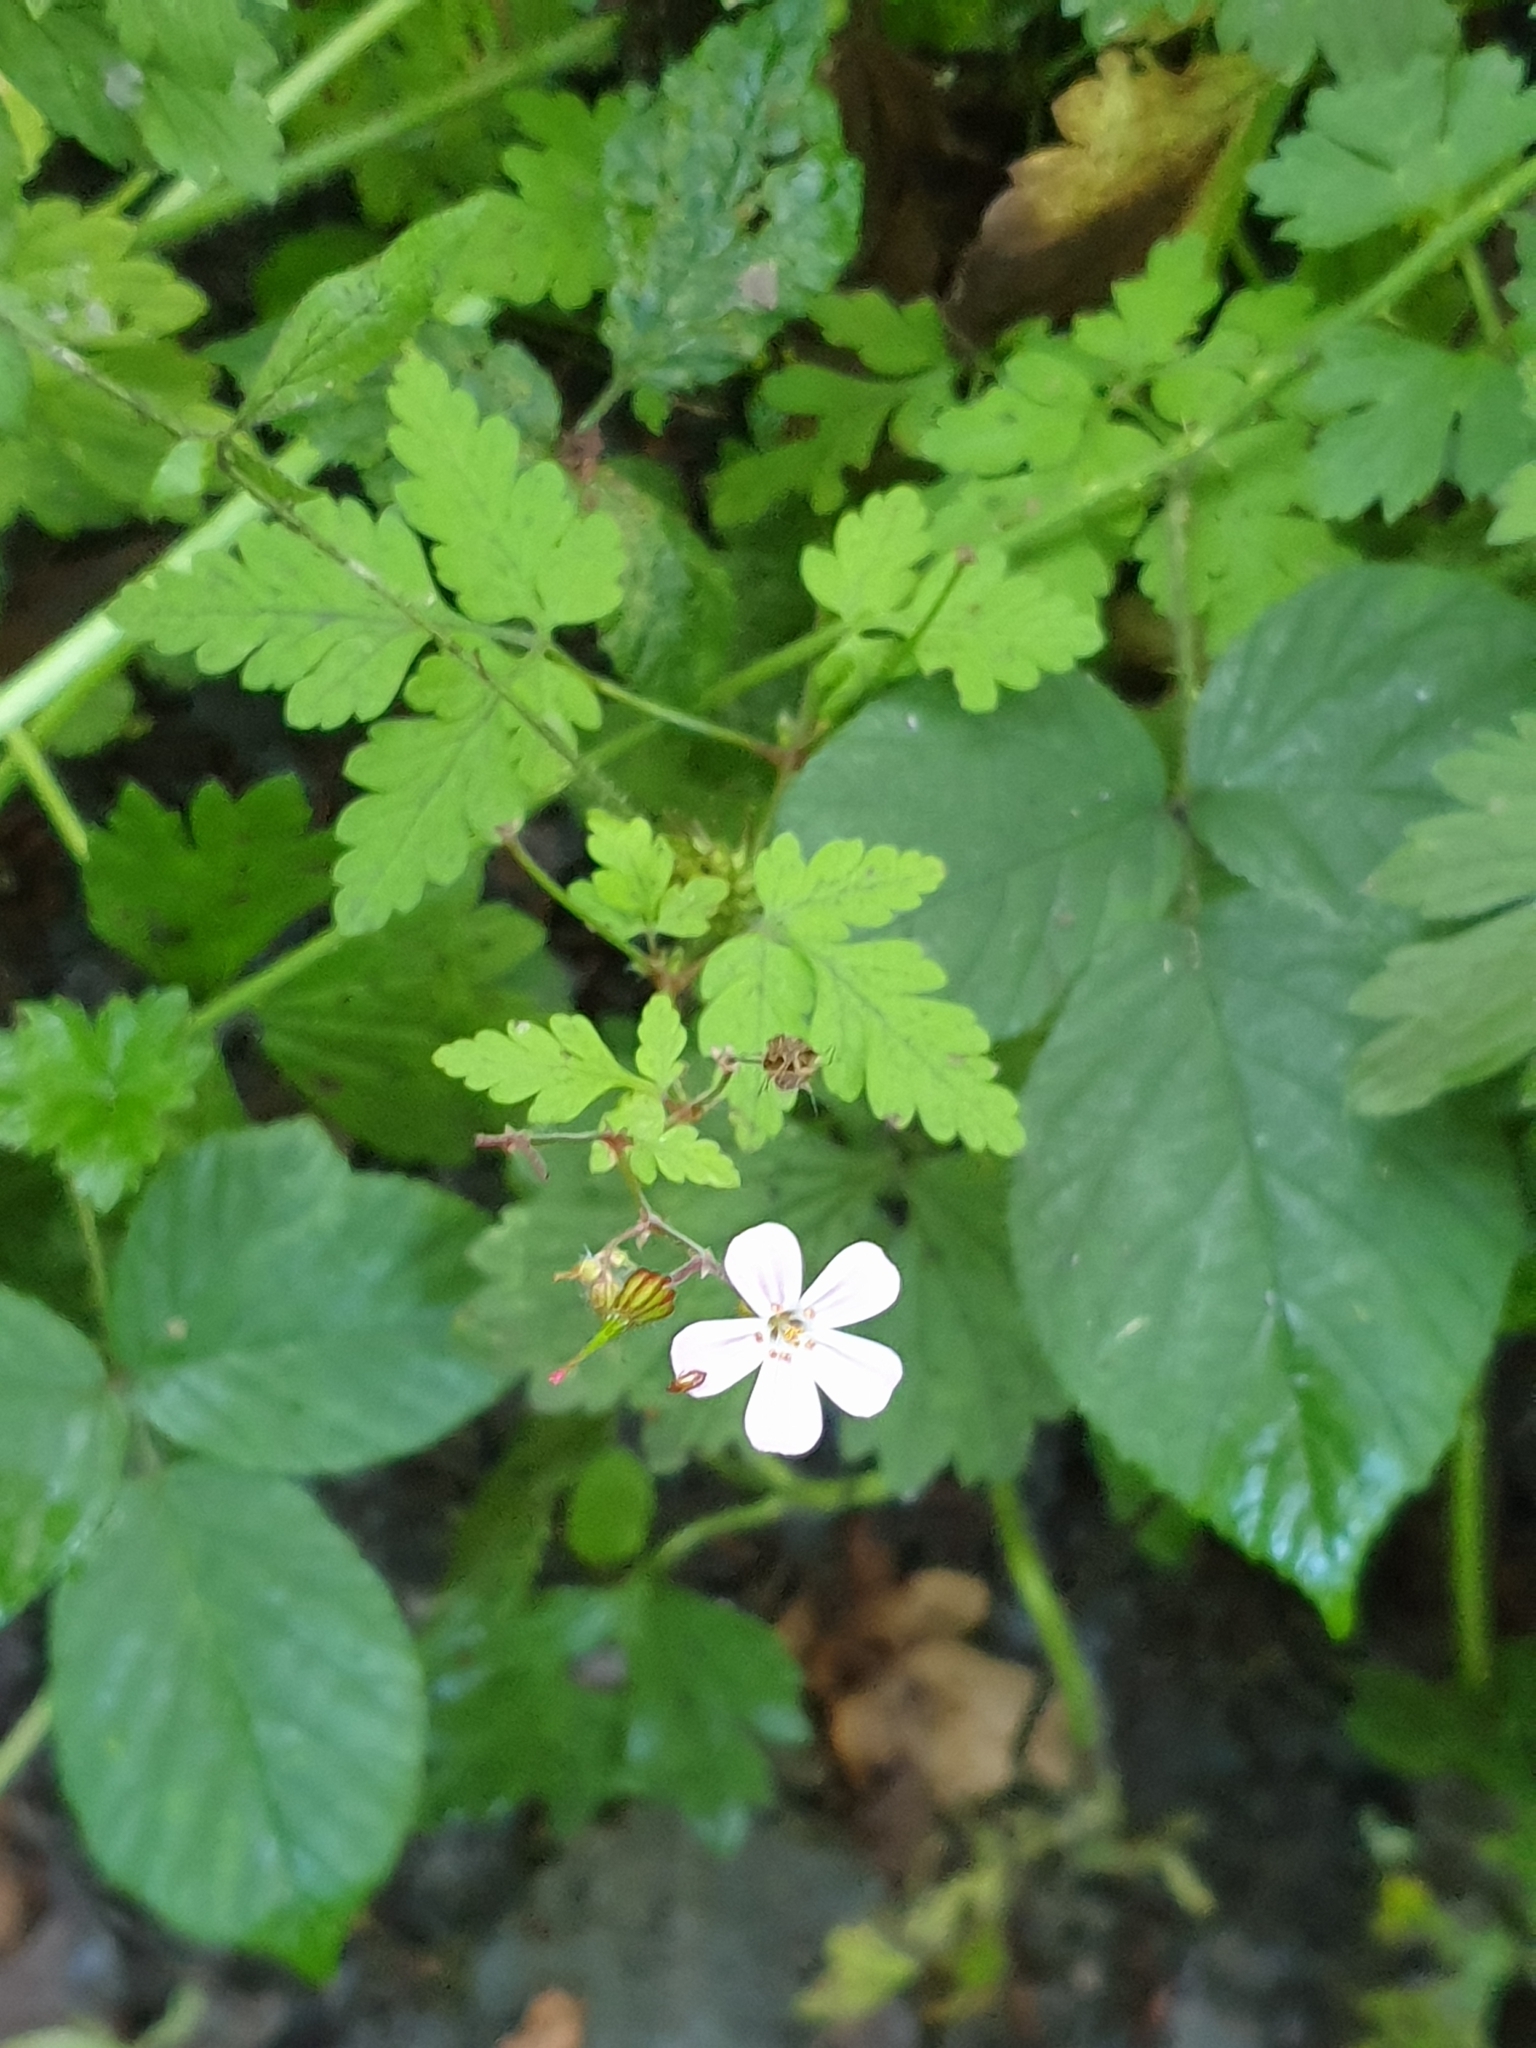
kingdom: Plantae
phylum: Tracheophyta
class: Magnoliopsida
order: Geraniales
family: Geraniaceae
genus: Geranium
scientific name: Geranium robertianum
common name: Herb-robert
